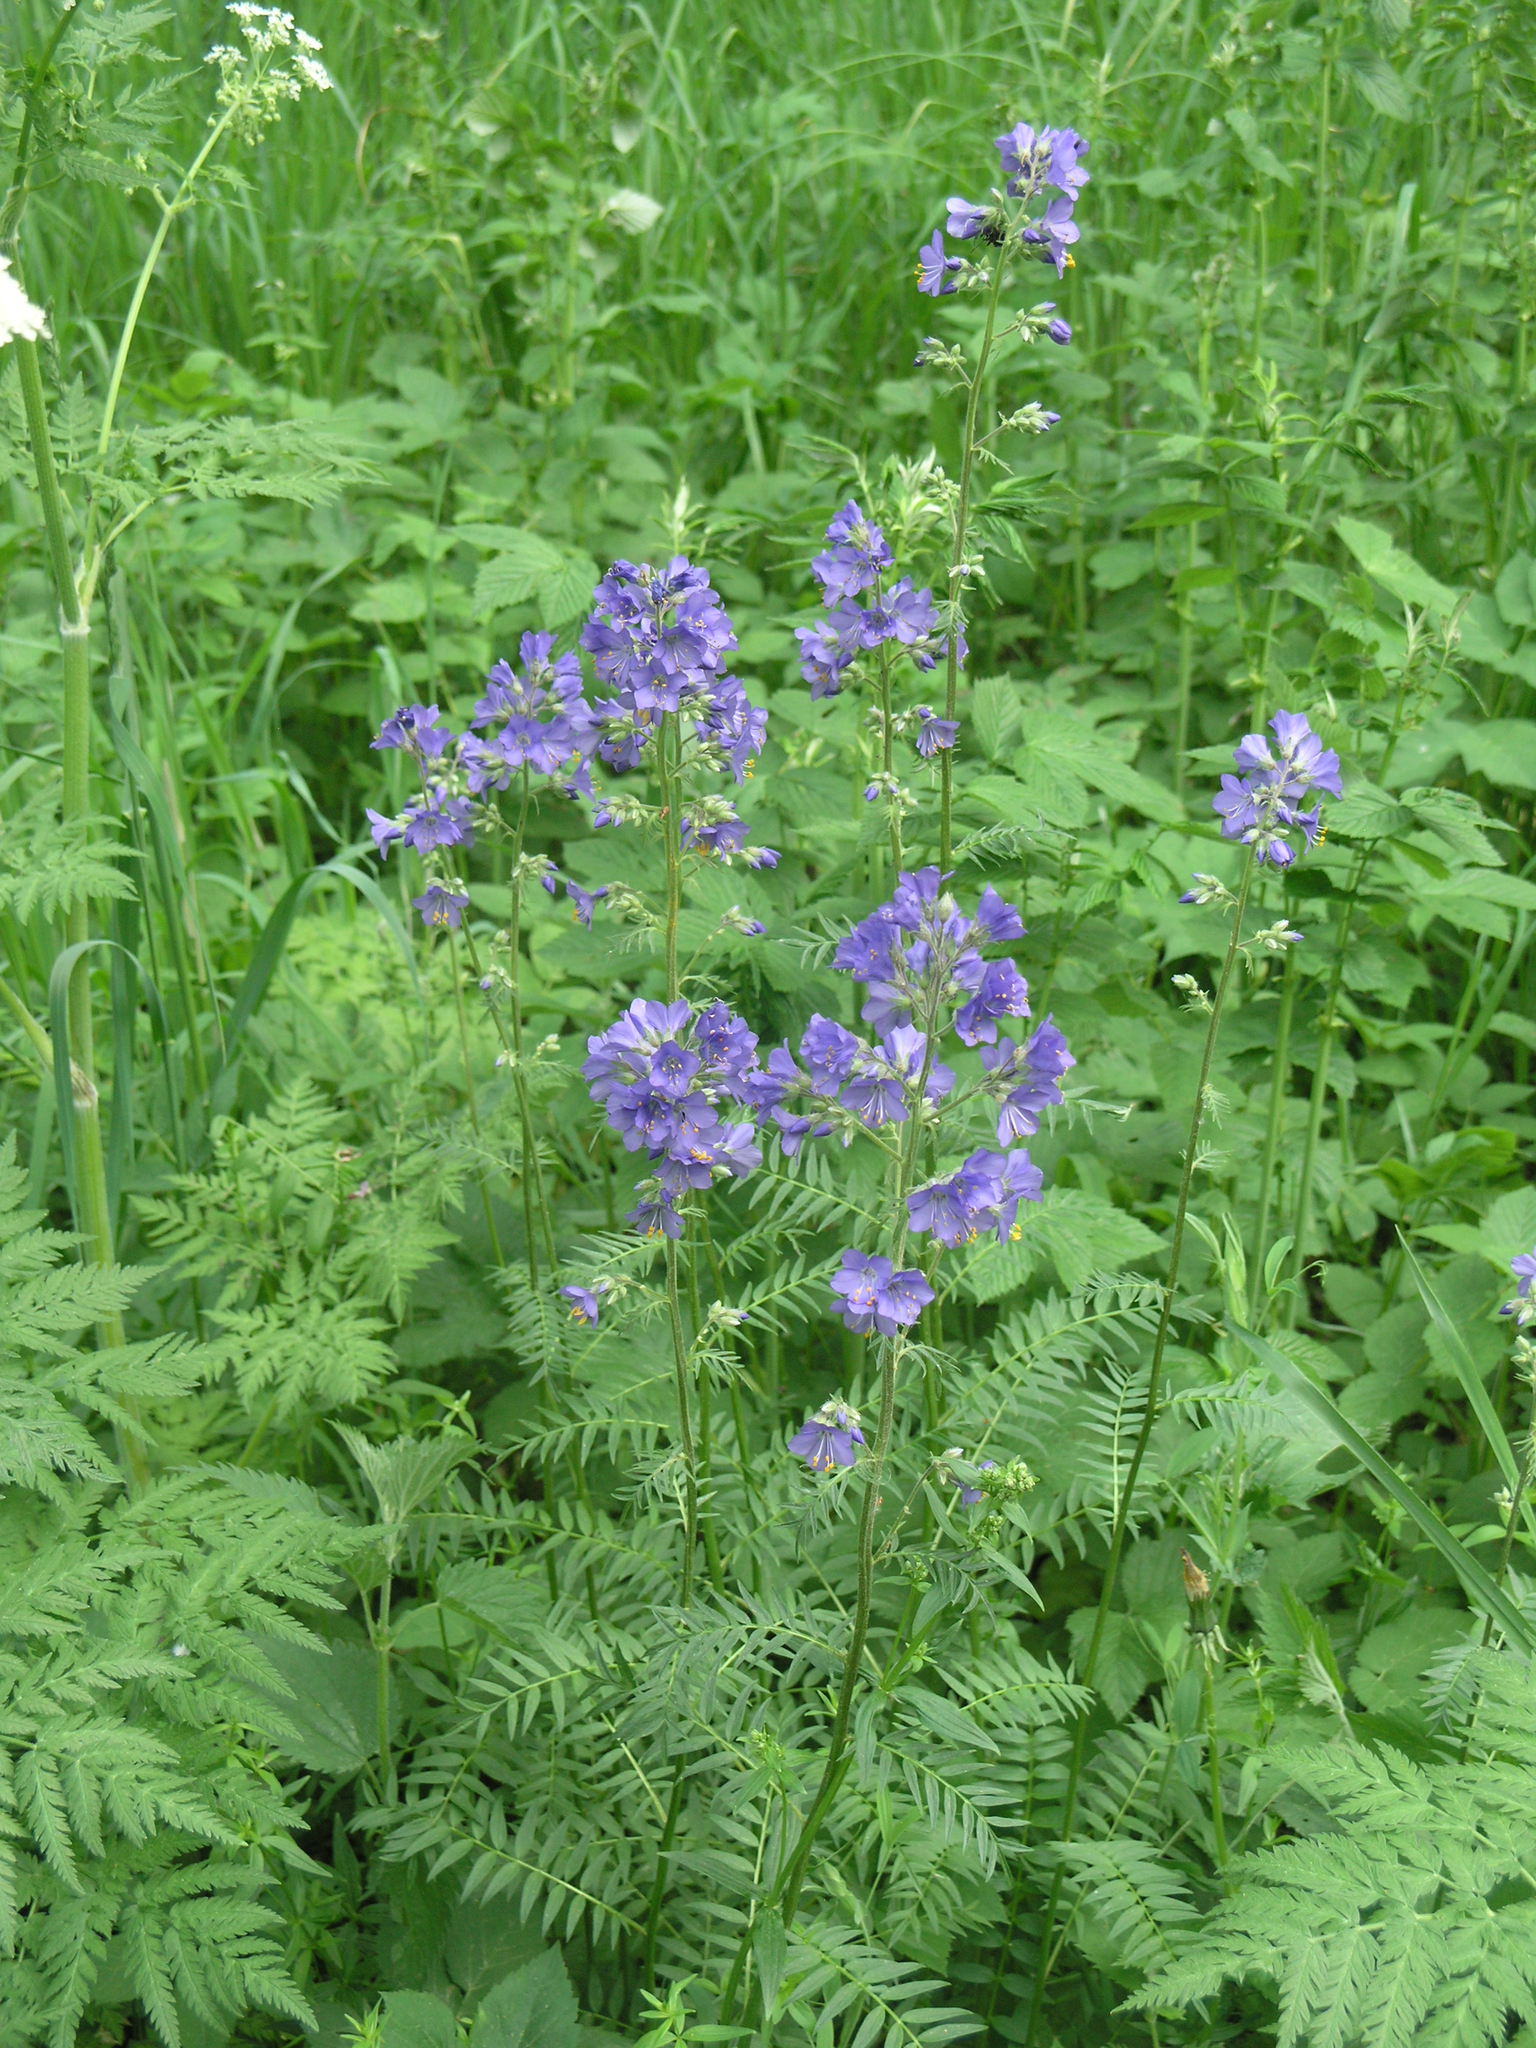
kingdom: Plantae
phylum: Tracheophyta
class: Magnoliopsida
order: Ericales
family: Polemoniaceae
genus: Polemonium
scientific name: Polemonium caeruleum
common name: Jacob's-ladder
